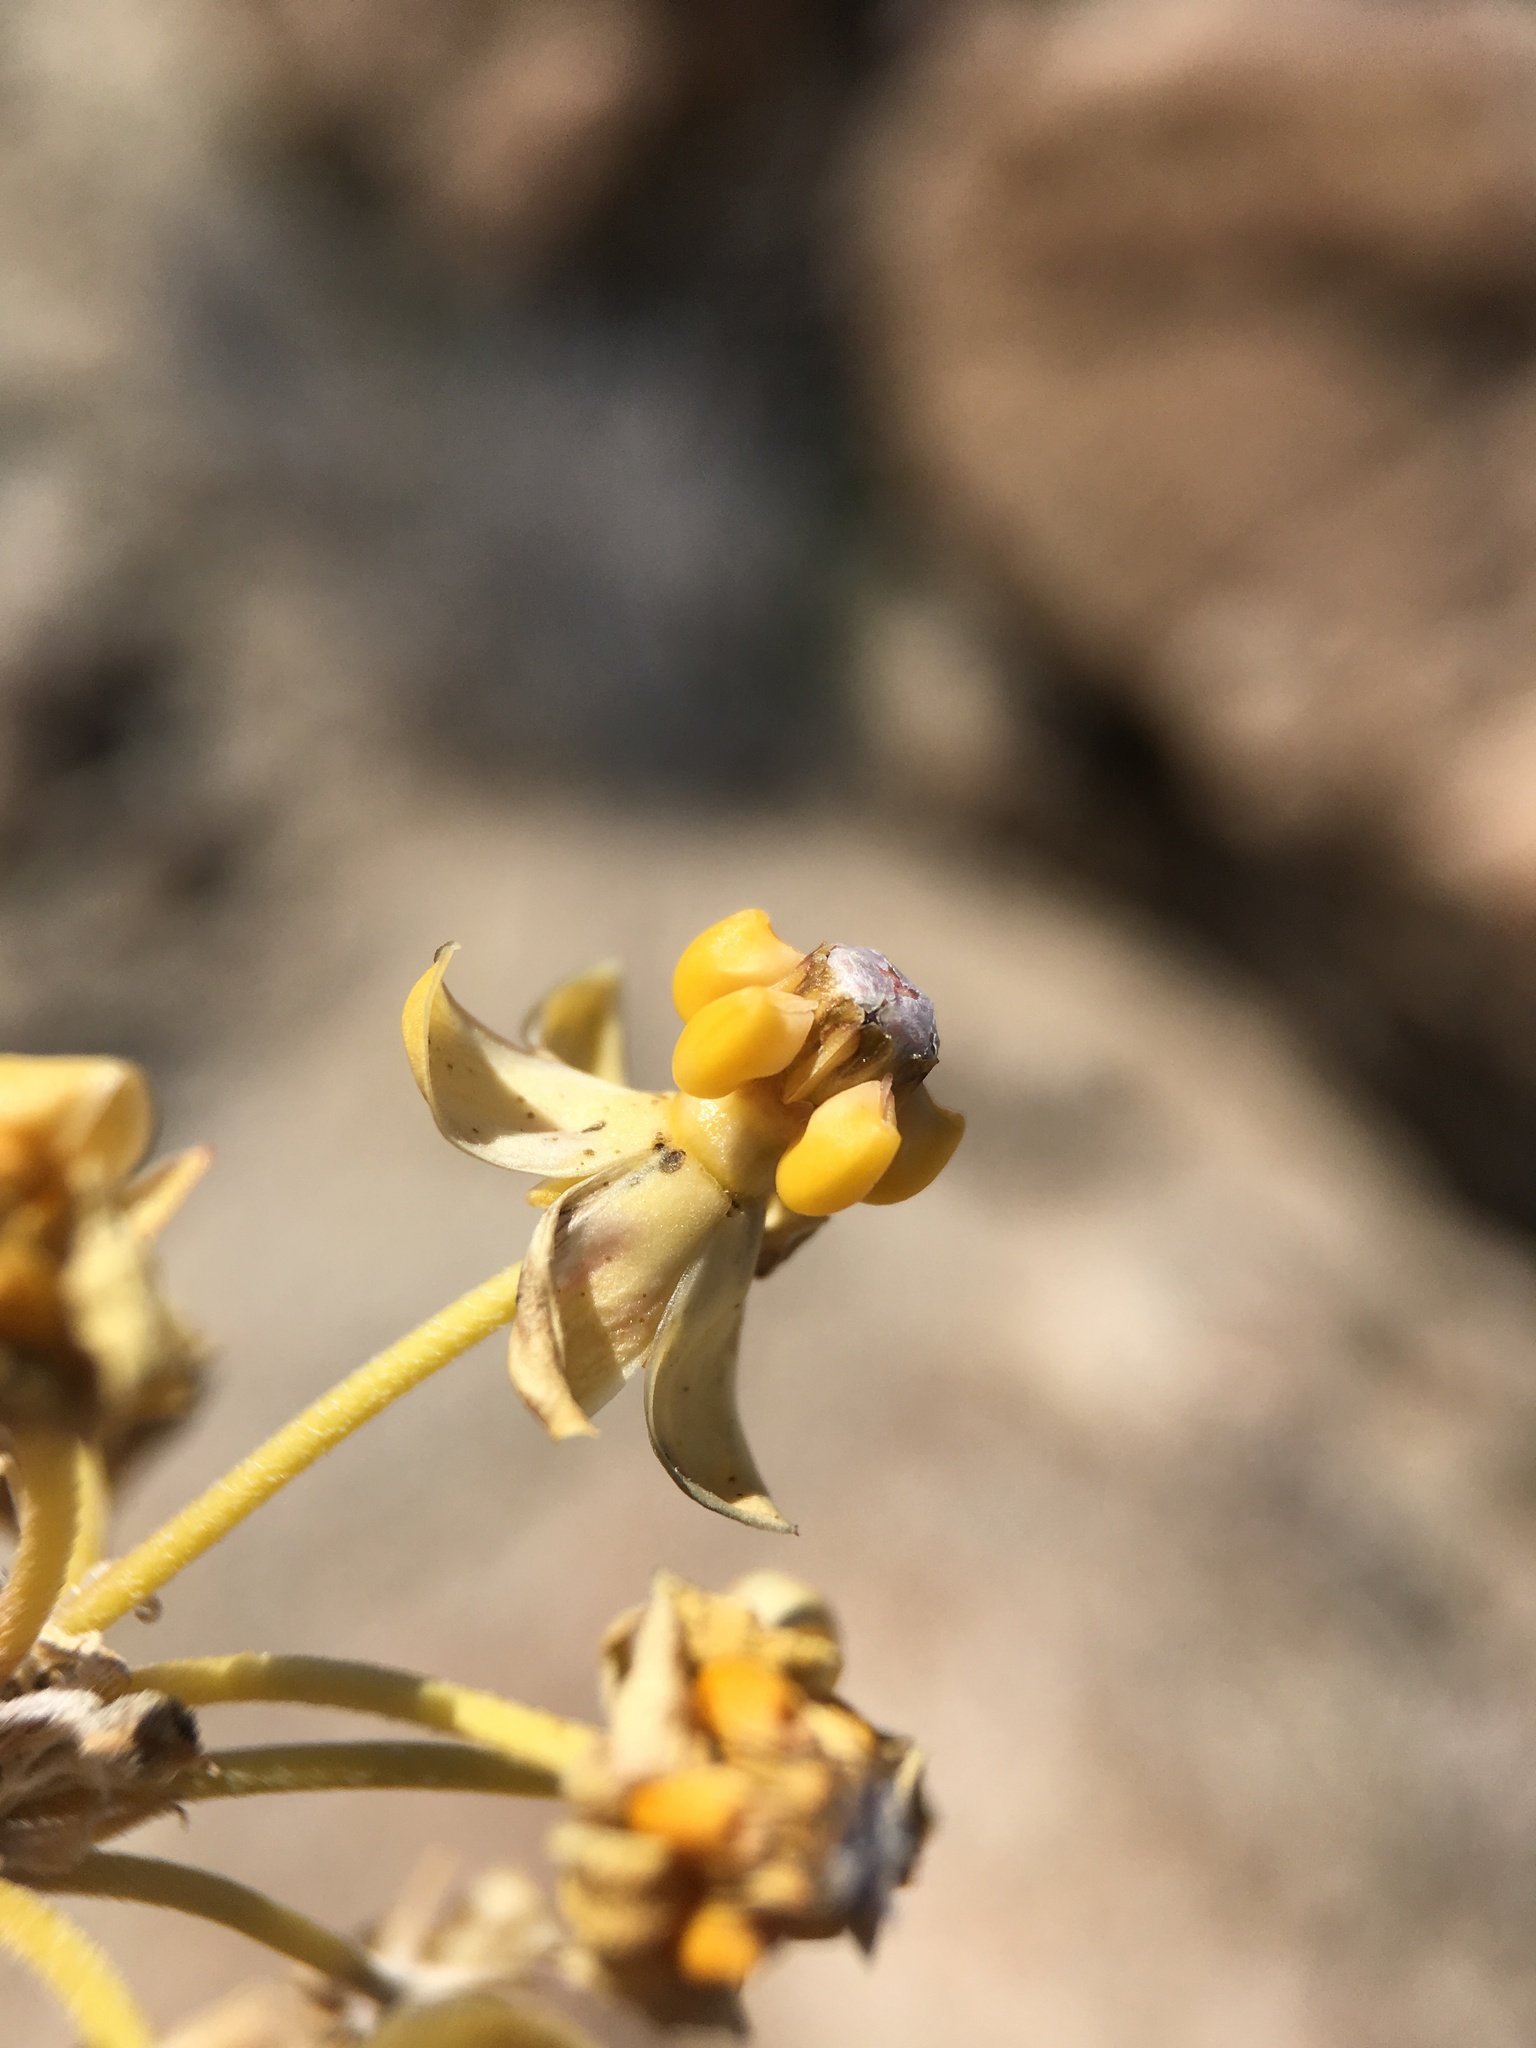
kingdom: Plantae
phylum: Tracheophyta
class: Magnoliopsida
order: Gentianales
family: Apocynaceae
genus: Asclepias
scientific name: Asclepias albicans
